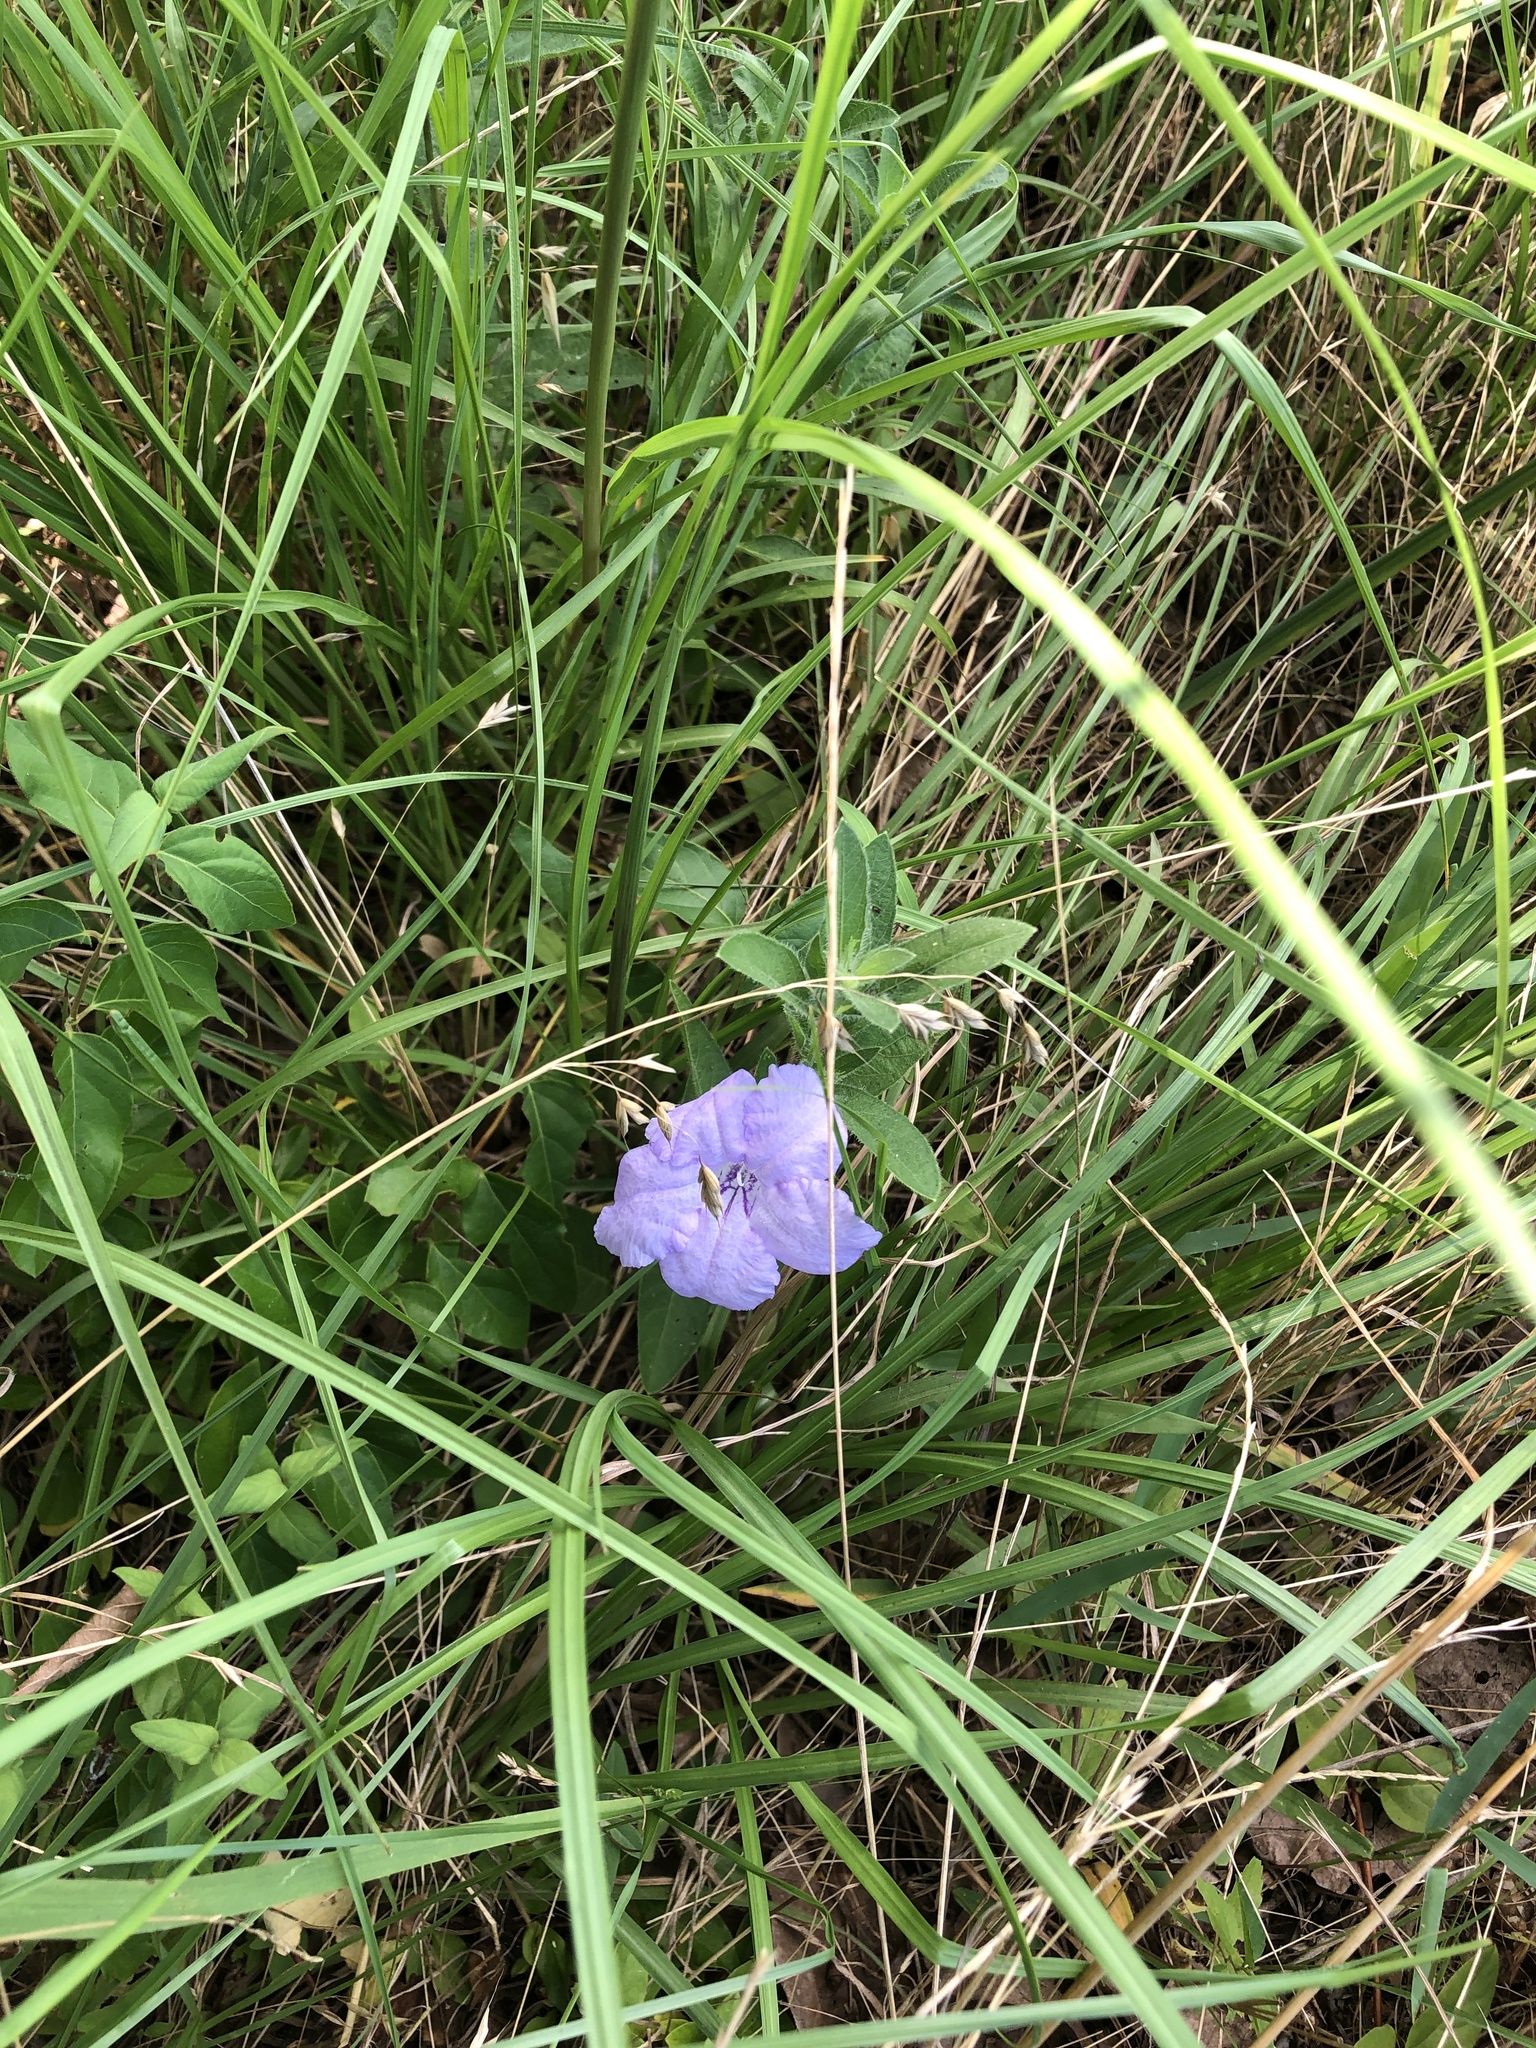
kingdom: Plantae
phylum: Tracheophyta
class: Magnoliopsida
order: Lamiales
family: Acanthaceae
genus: Ruellia
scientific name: Ruellia humilis
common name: Fringe-leaf ruellia
